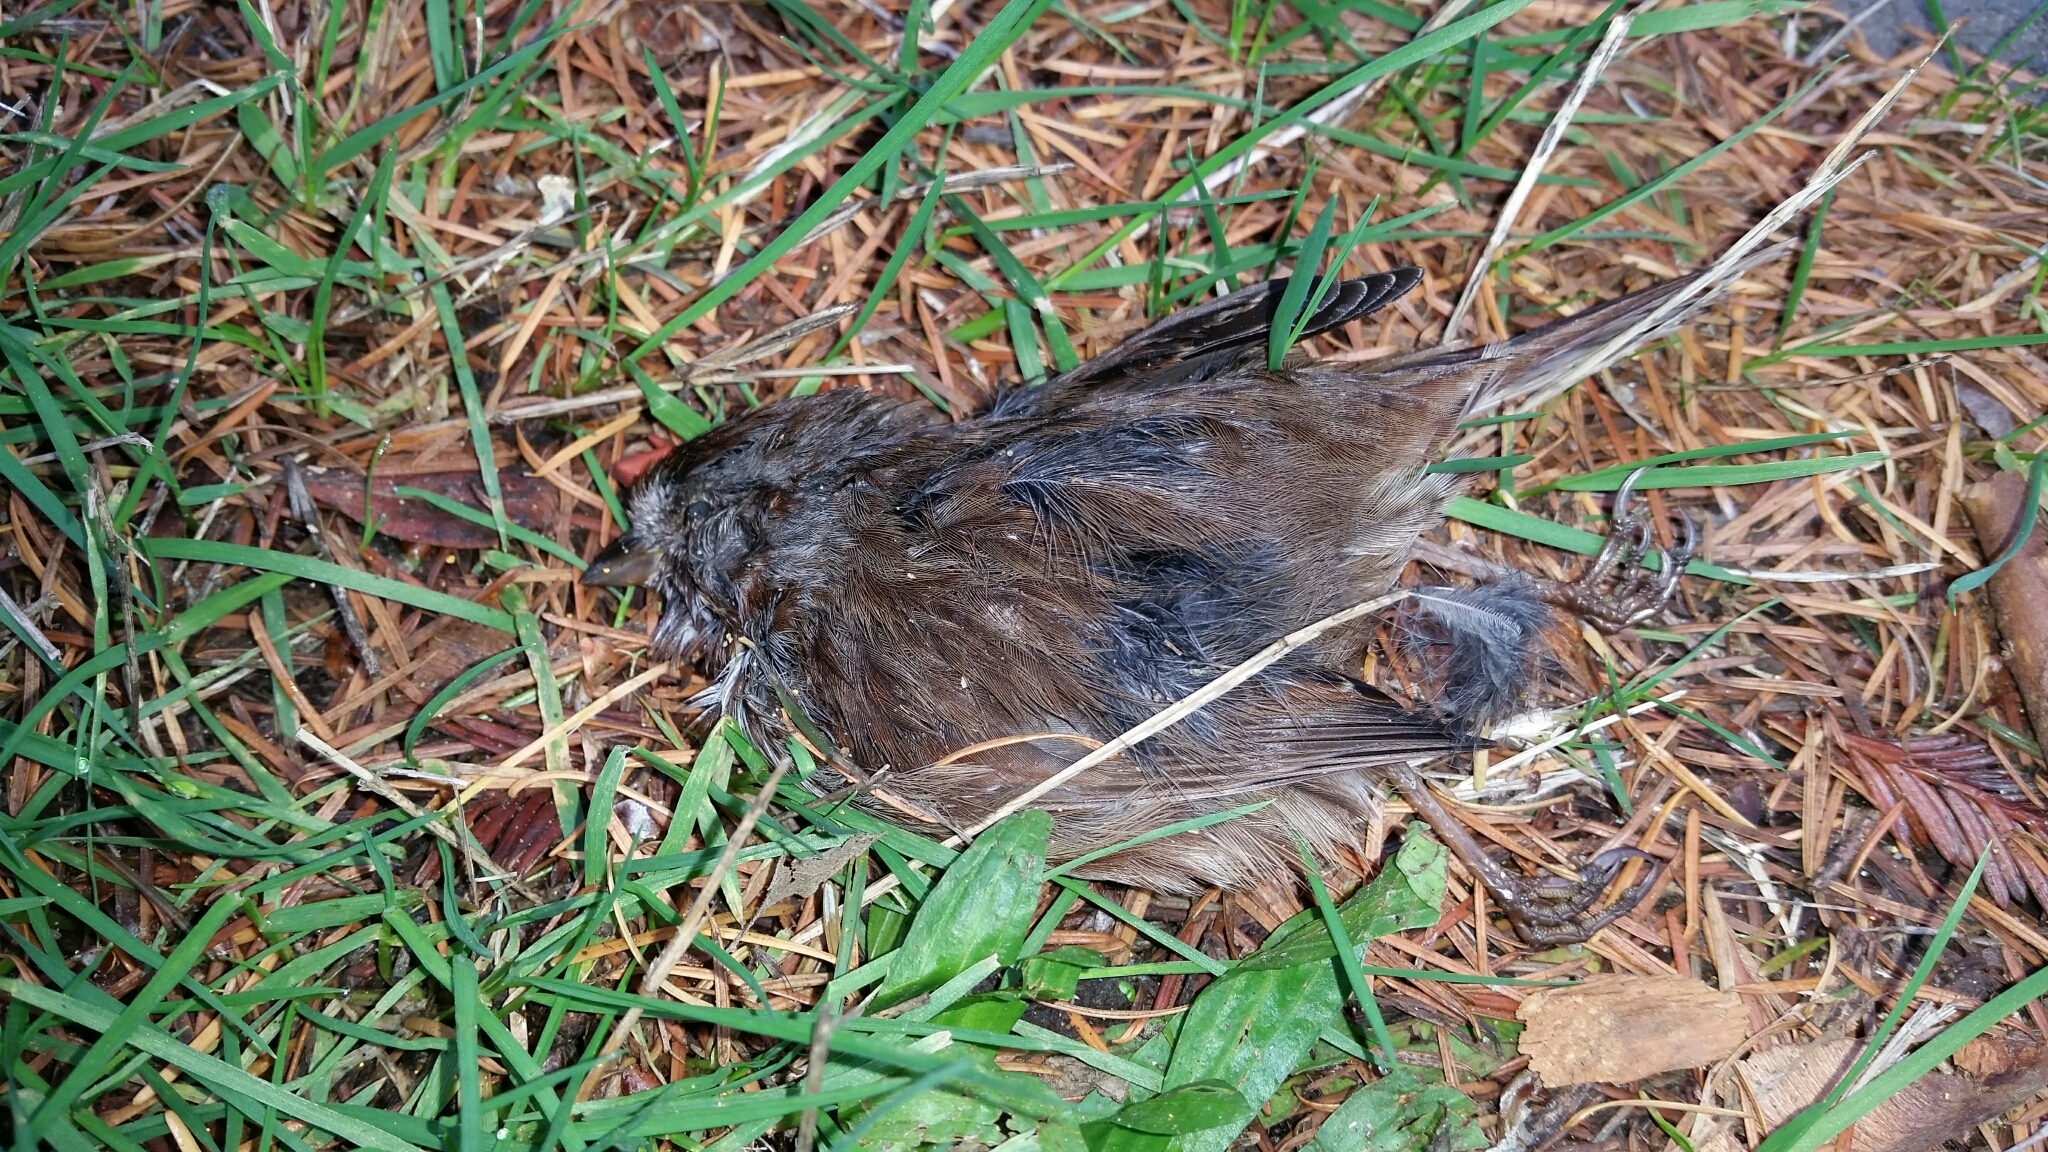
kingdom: Animalia
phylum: Chordata
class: Aves
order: Passeriformes
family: Passerellidae
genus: Melospiza
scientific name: Melospiza melodia
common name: Song sparrow
